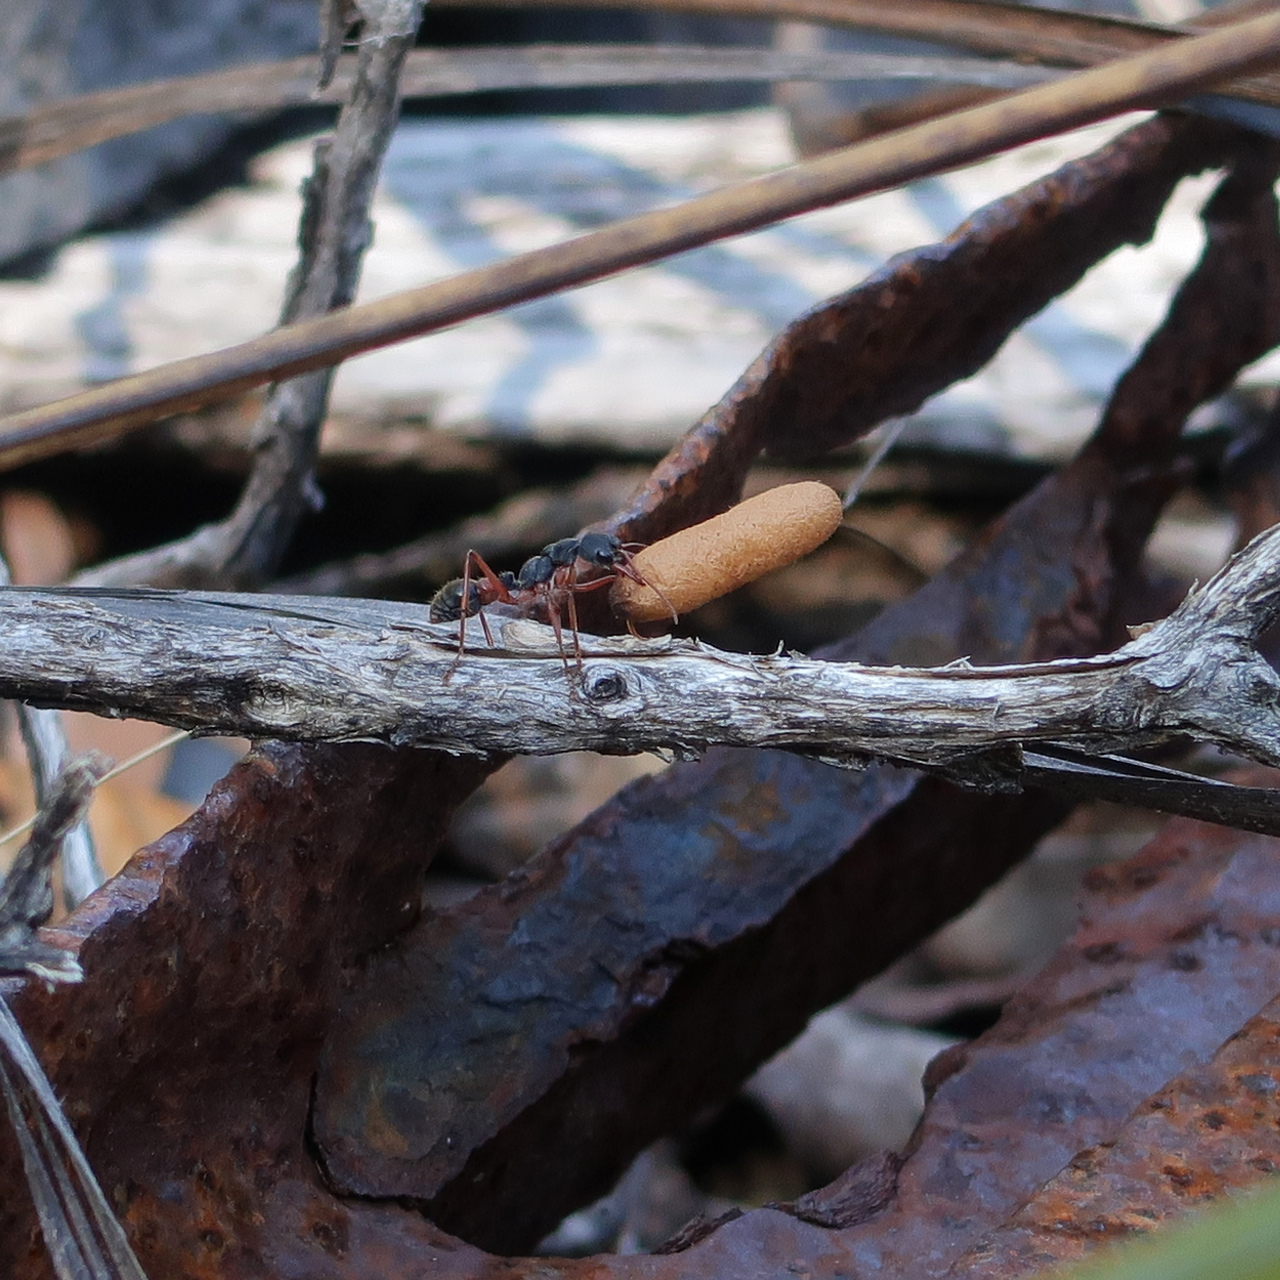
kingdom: Animalia
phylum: Arthropoda
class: Insecta
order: Hymenoptera
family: Formicidae
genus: Myrmecia
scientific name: Myrmecia esuriens
